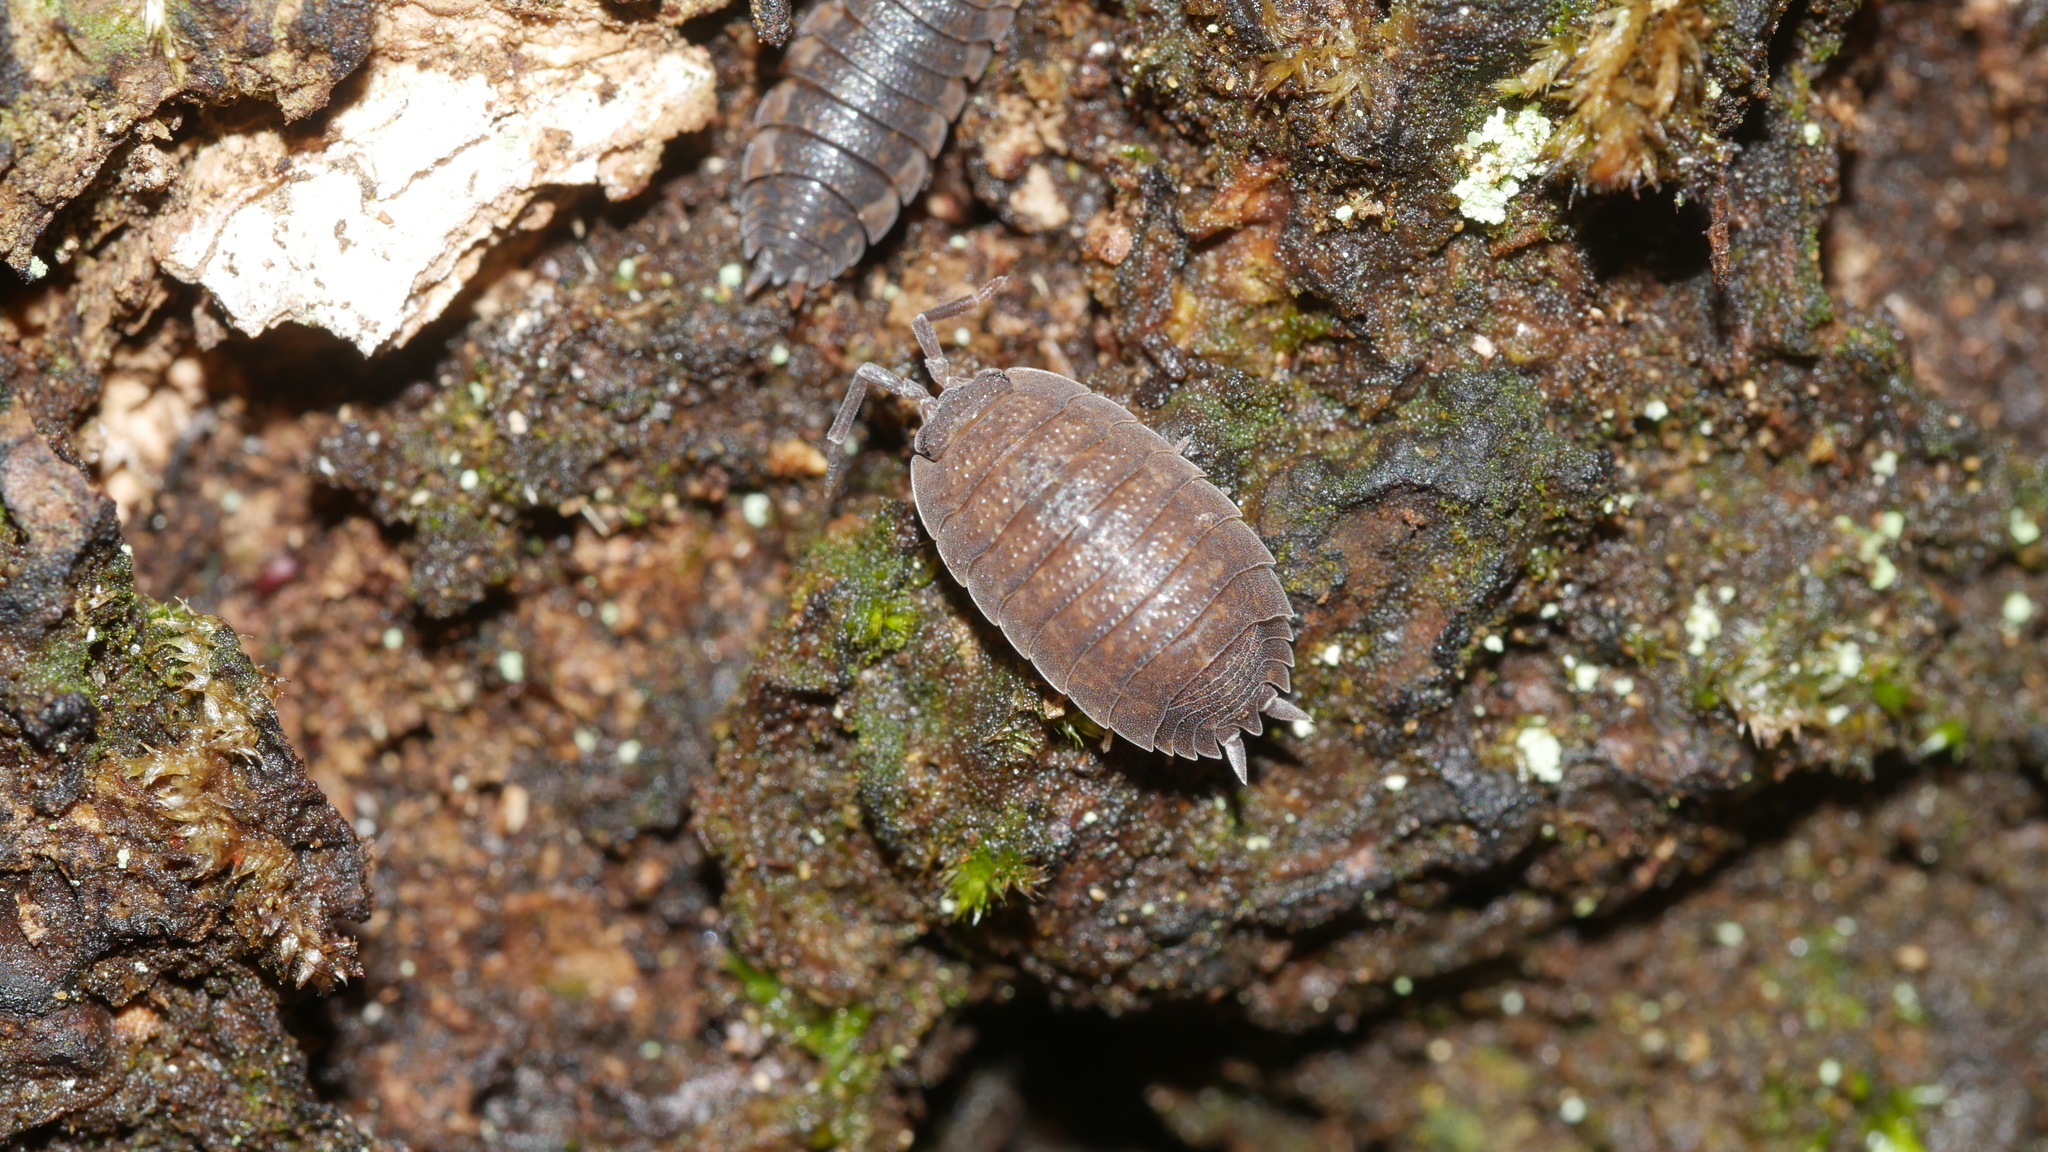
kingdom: Animalia
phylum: Arthropoda
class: Malacostraca
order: Isopoda
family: Porcellionidae
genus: Porcellio
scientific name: Porcellio scaber
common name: Common rough woodlouse
